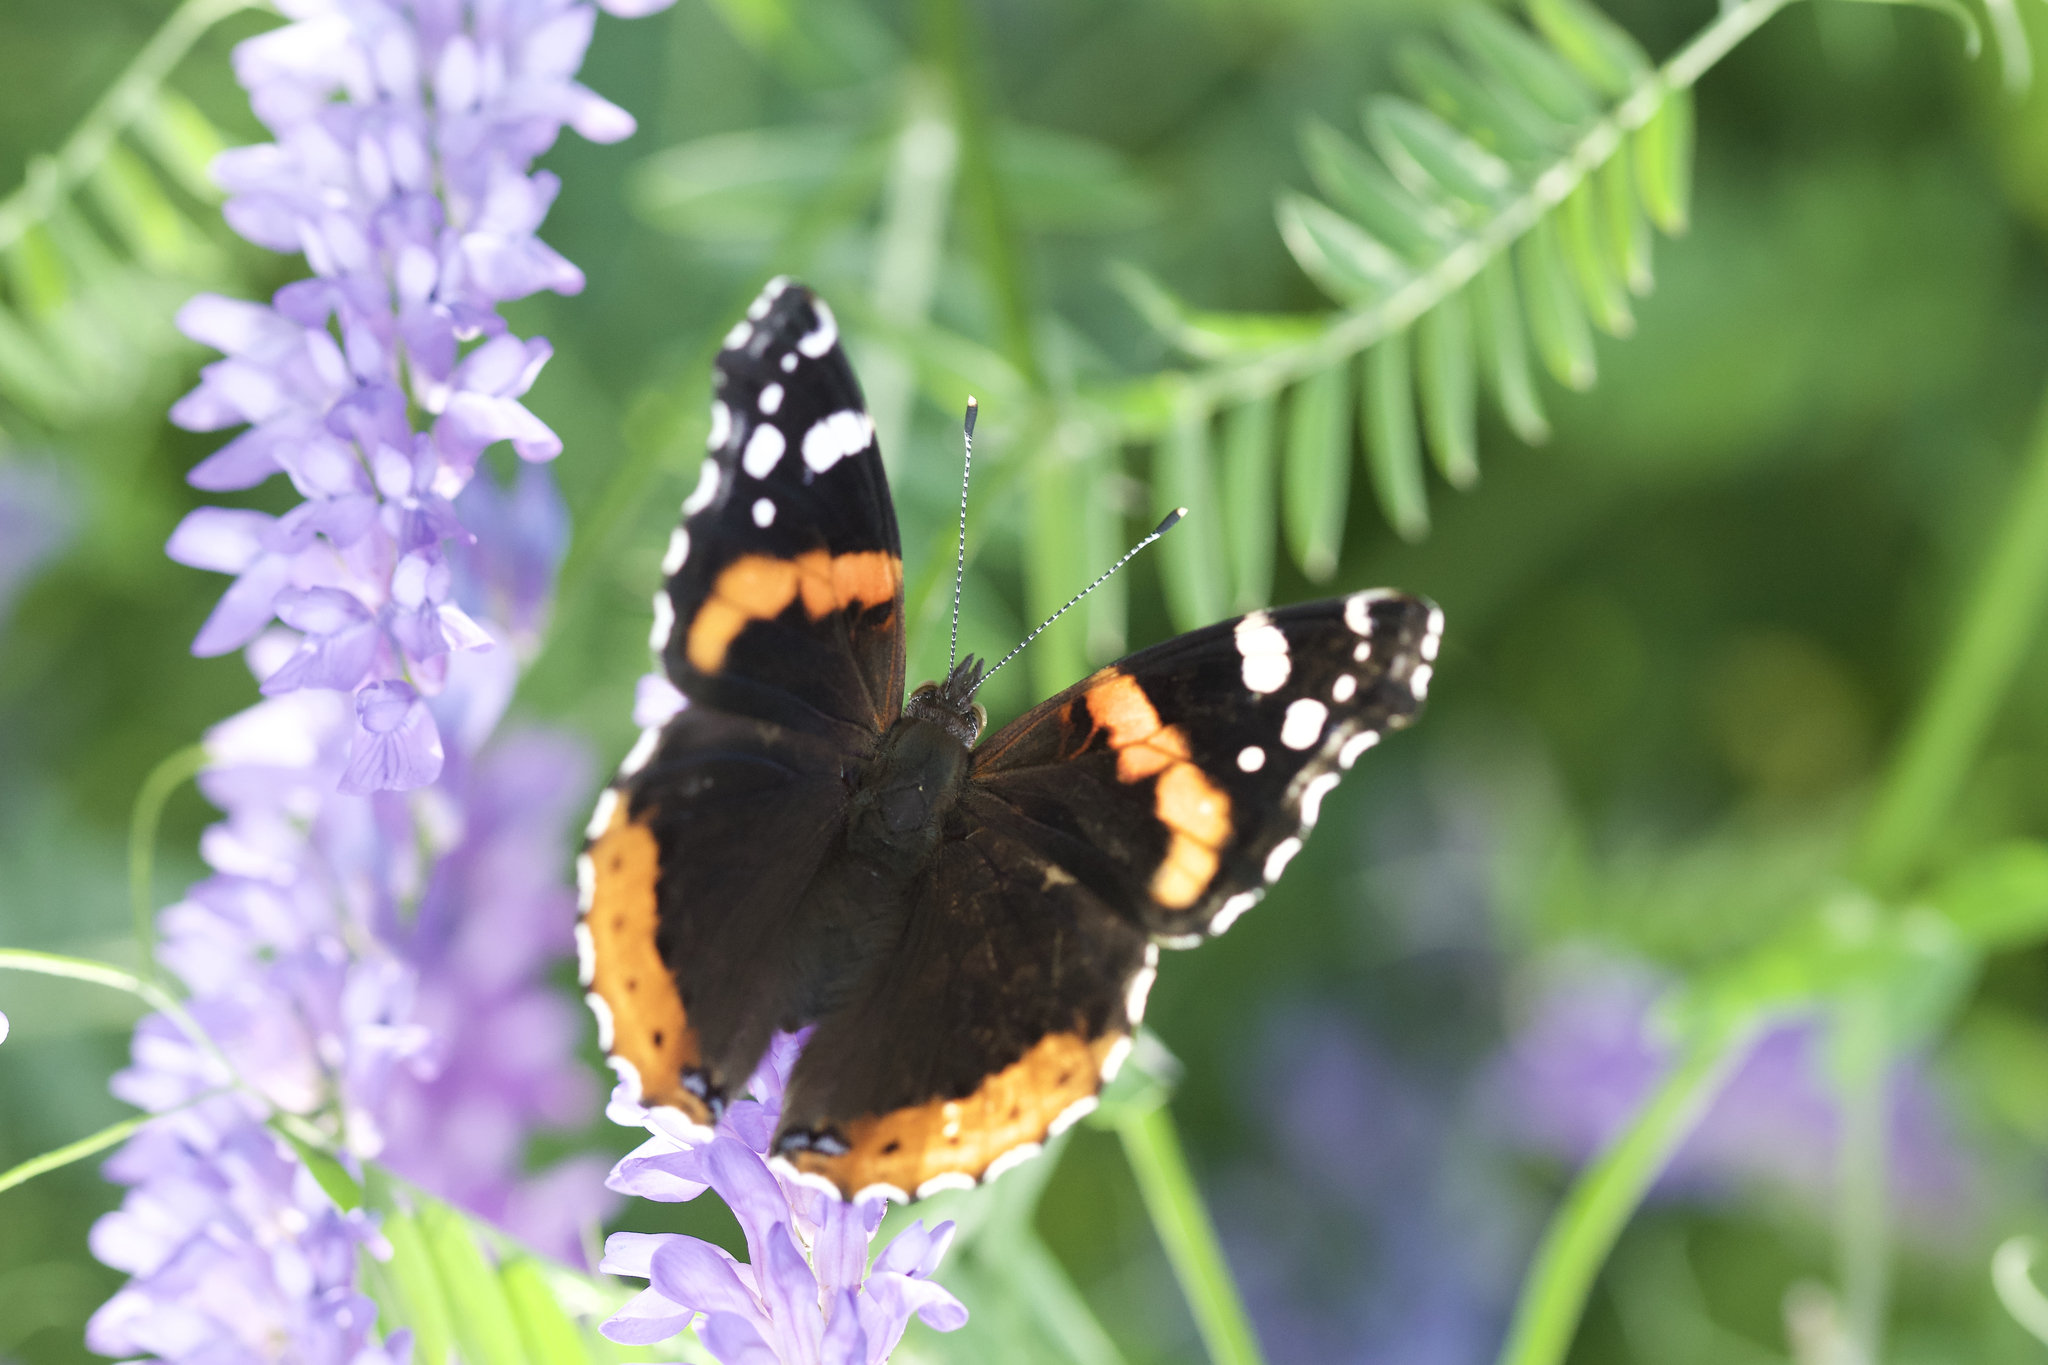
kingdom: Animalia
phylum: Arthropoda
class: Insecta
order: Lepidoptera
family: Nymphalidae
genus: Vanessa
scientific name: Vanessa atalanta
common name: Red admiral
